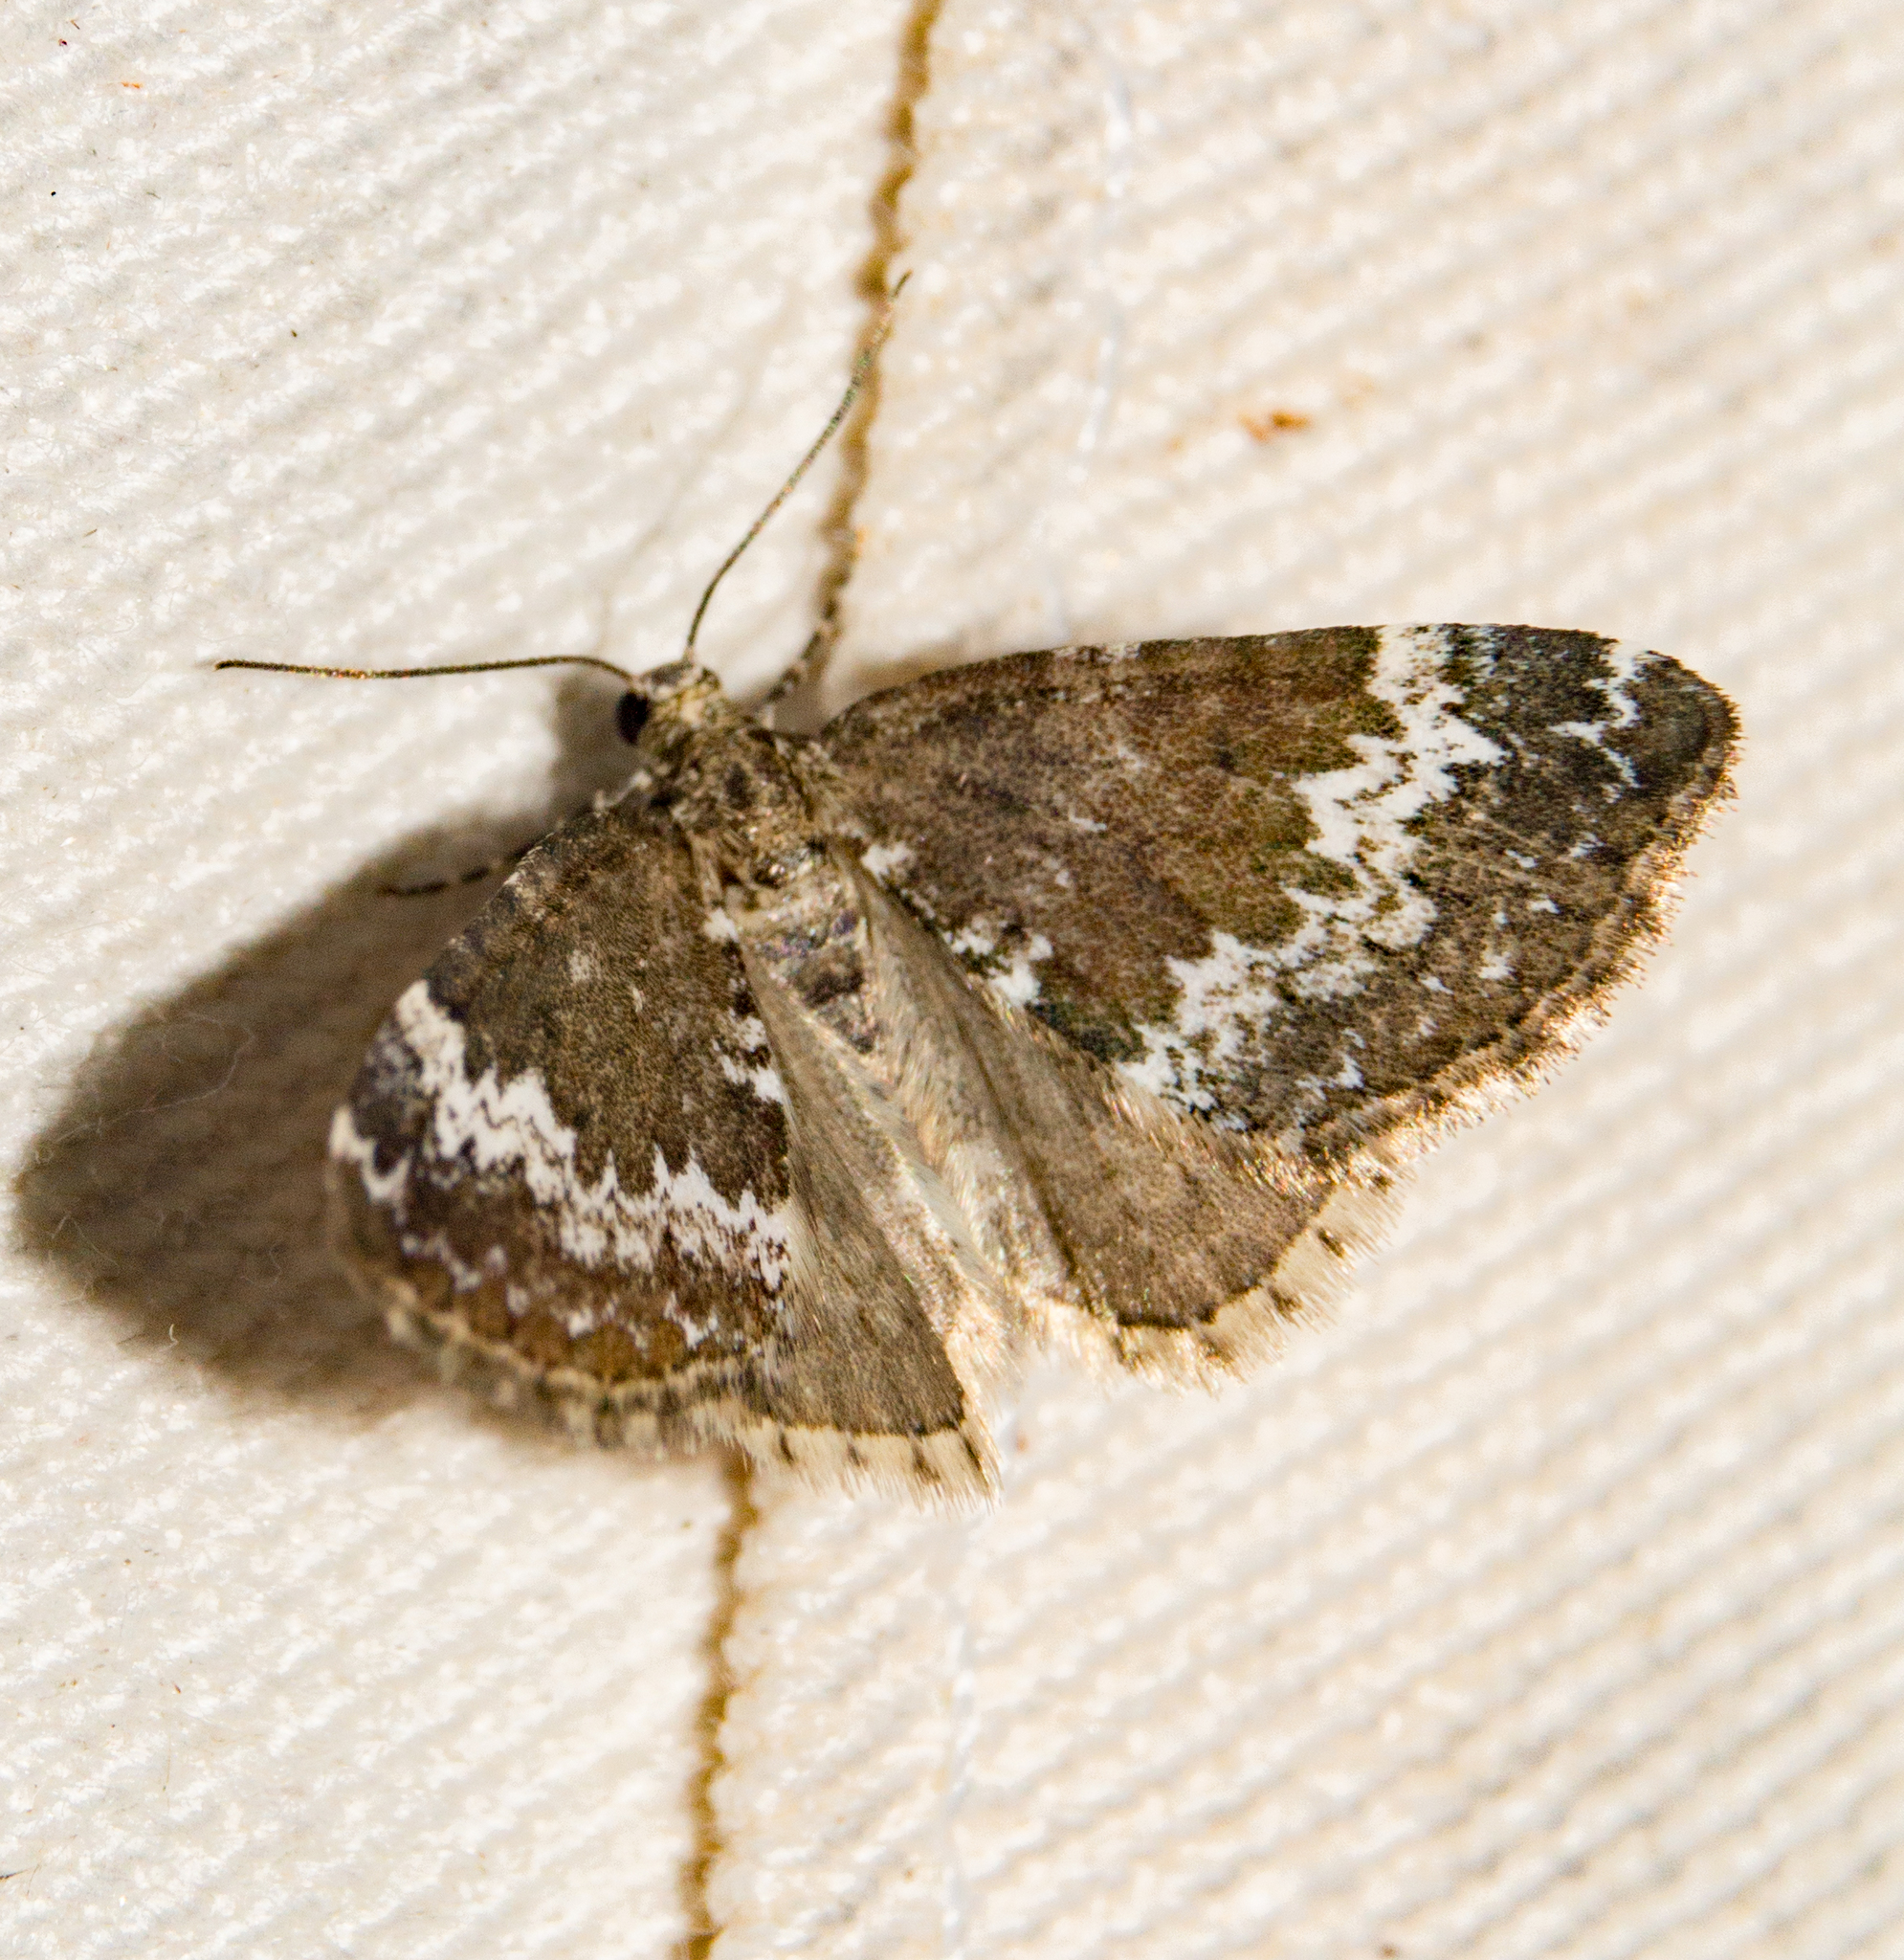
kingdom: Animalia
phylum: Arthropoda
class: Insecta
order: Lepidoptera
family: Geometridae
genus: Perizoma
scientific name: Perizoma alchemillata
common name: Small rivulet
